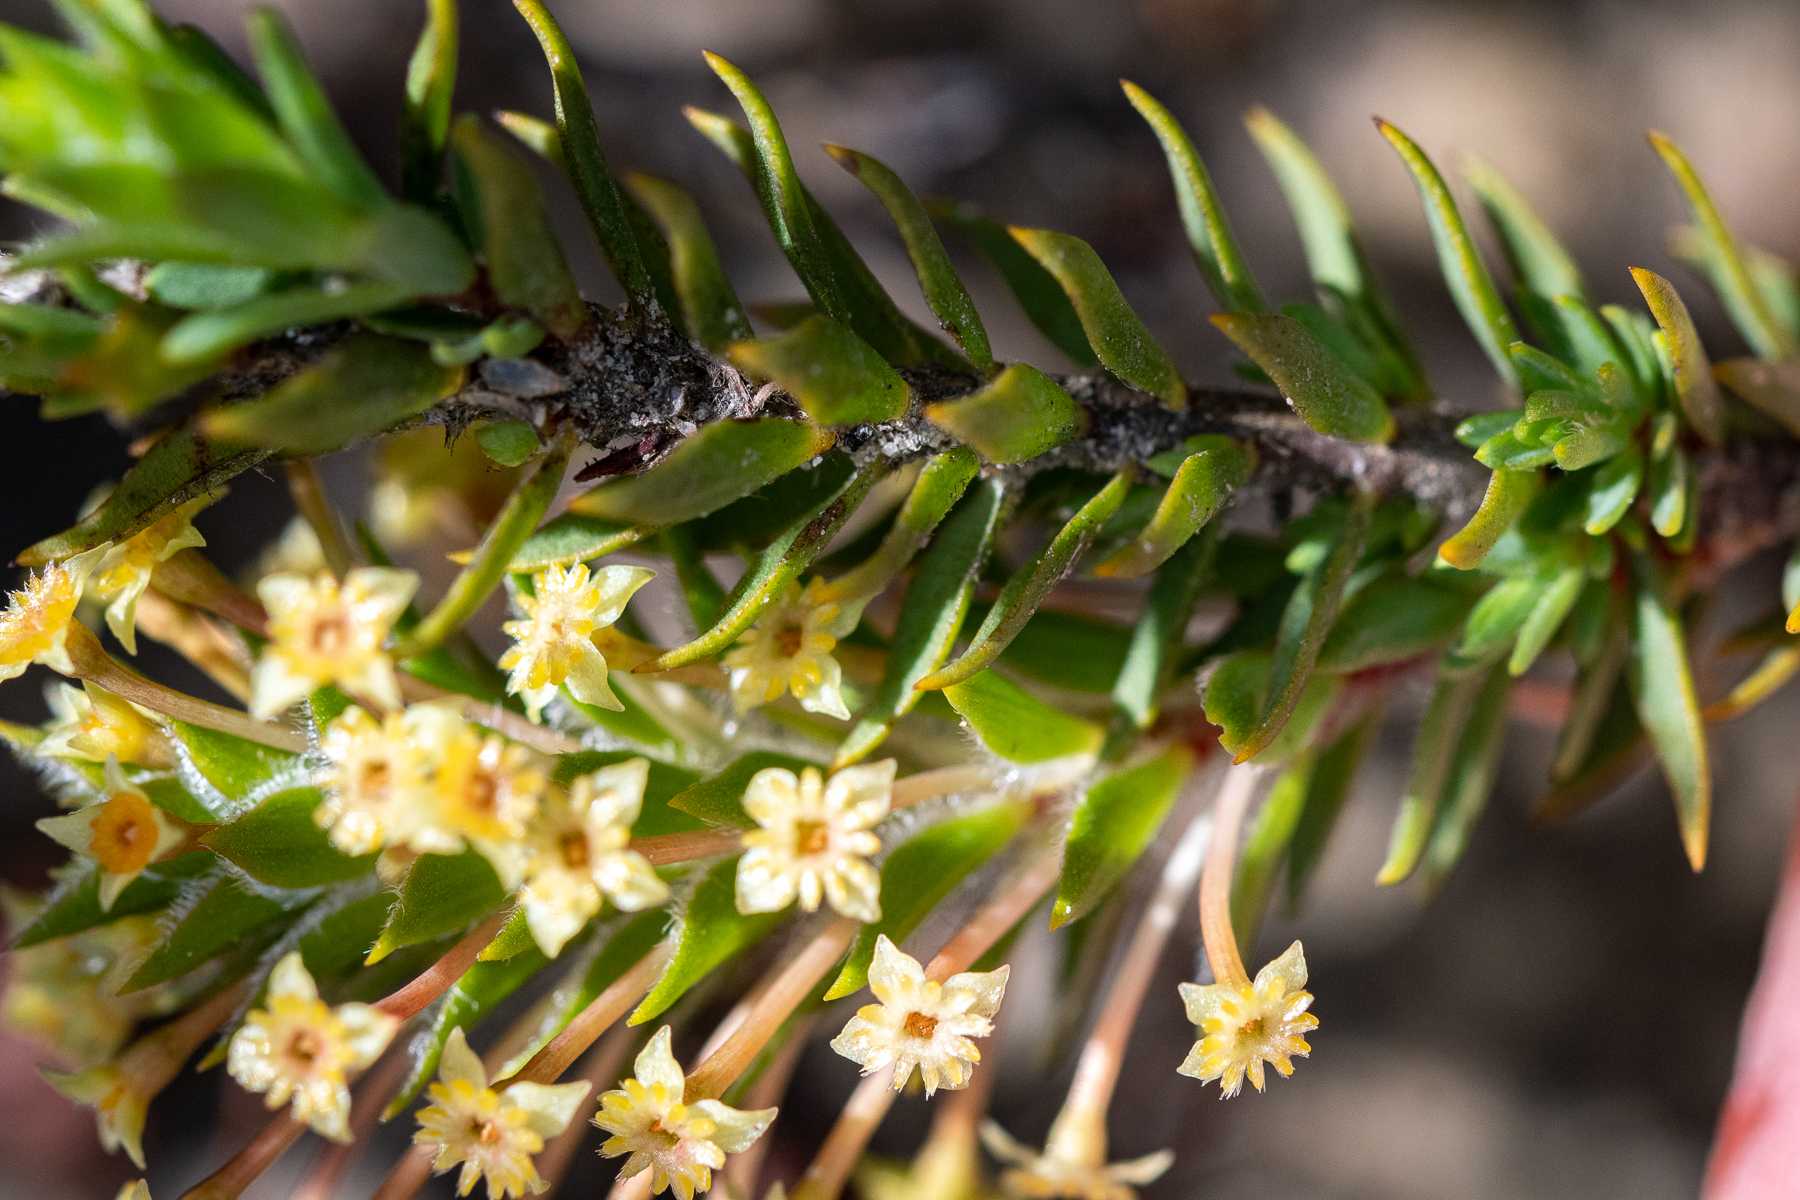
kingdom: Plantae
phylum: Tracheophyta
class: Magnoliopsida
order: Malvales
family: Thymelaeaceae
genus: Struthiola
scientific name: Struthiola mundtii
